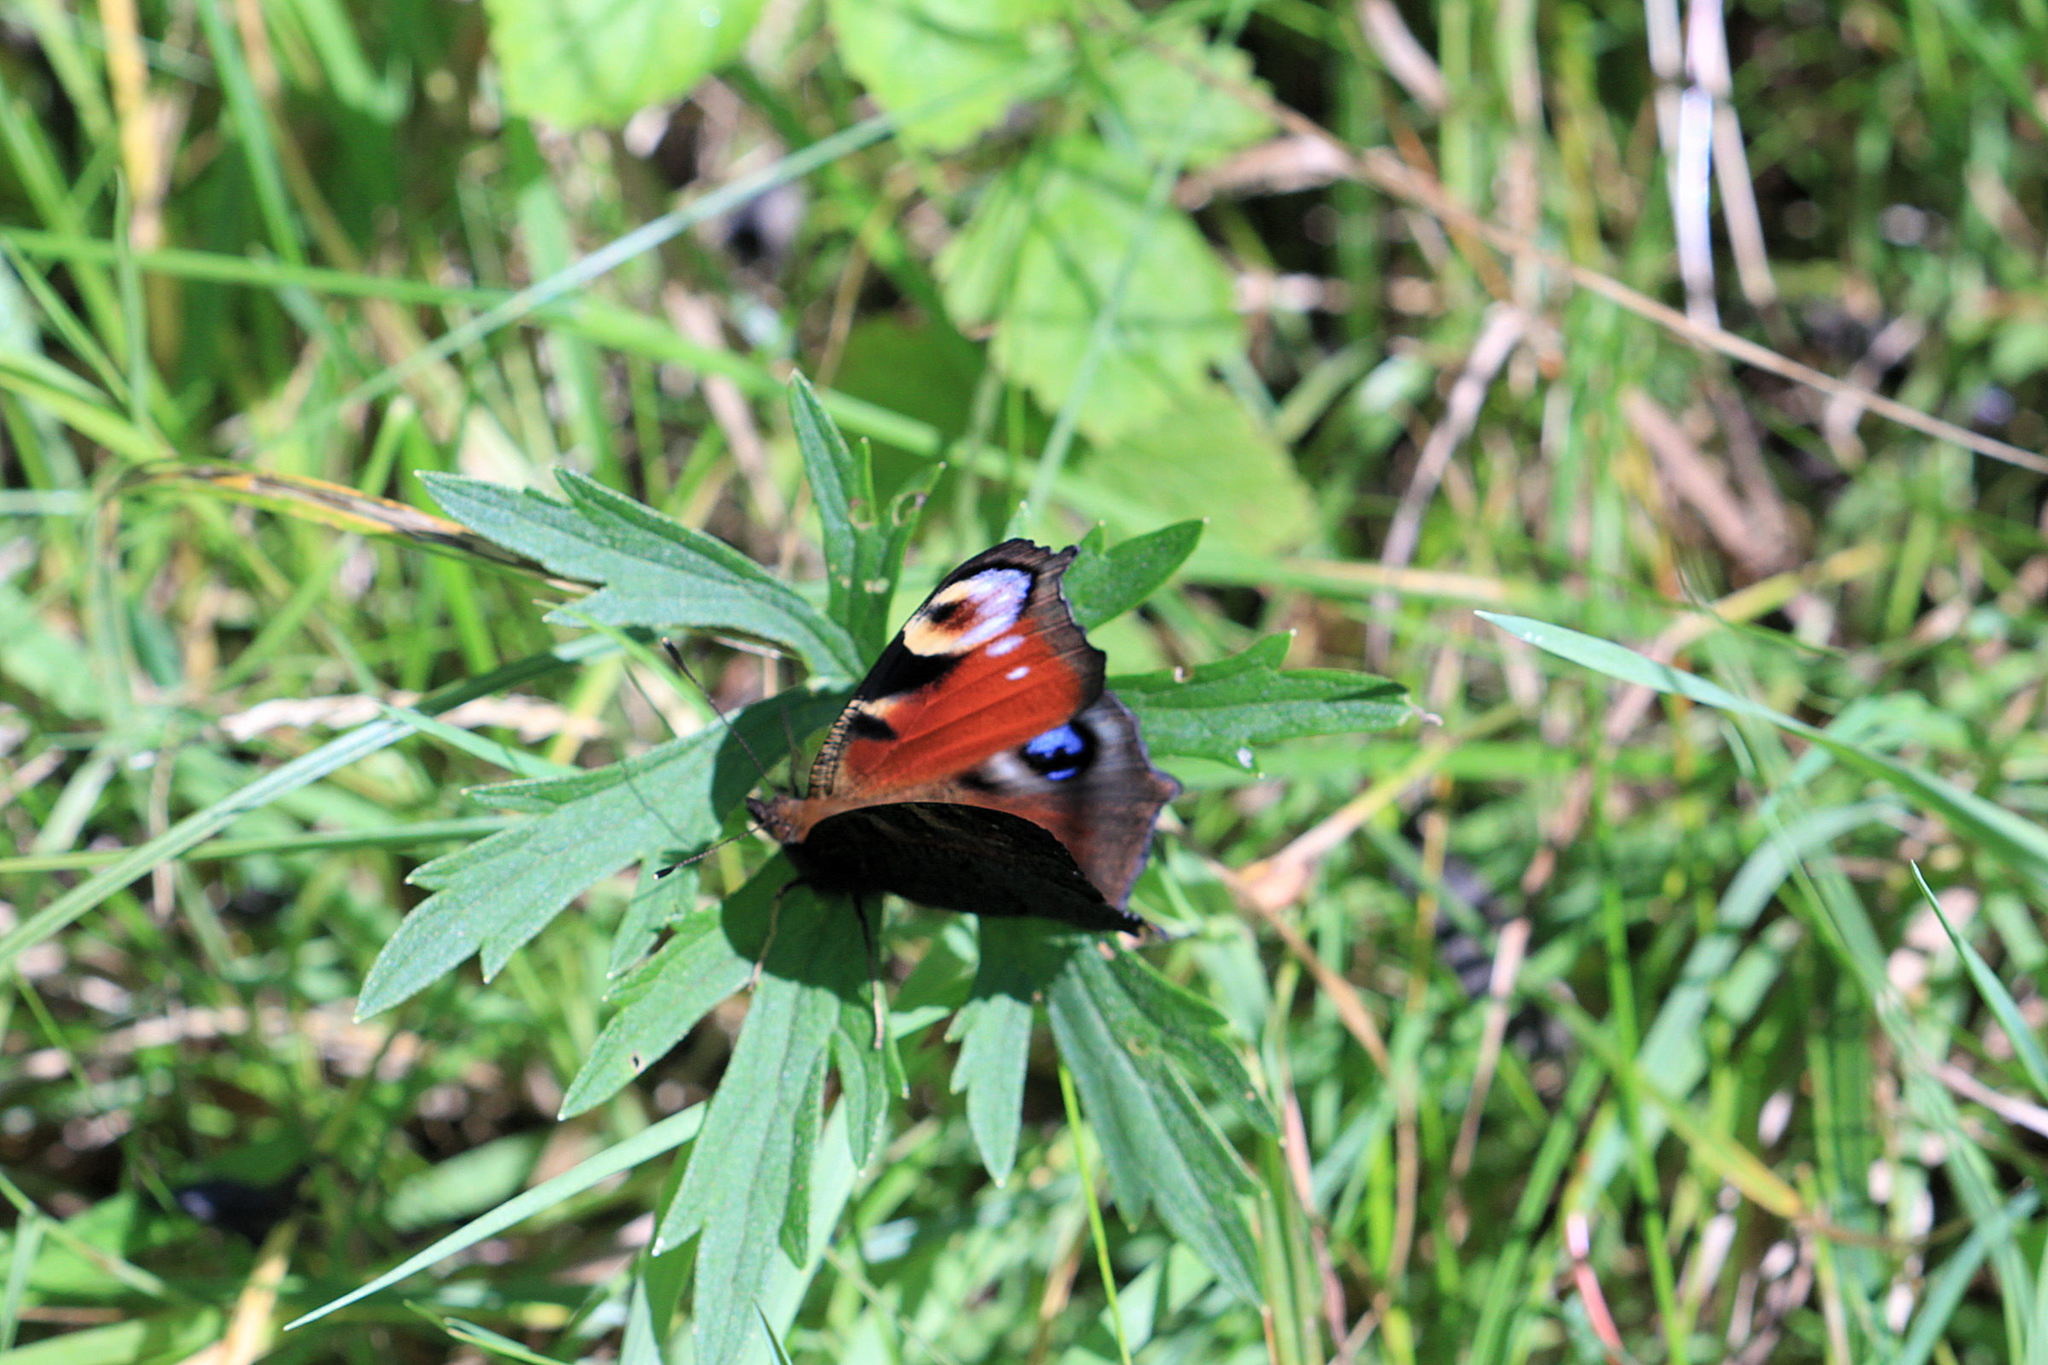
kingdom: Animalia
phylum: Arthropoda
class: Insecta
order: Lepidoptera
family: Nymphalidae
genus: Aglais
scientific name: Aglais io
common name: Peacock
